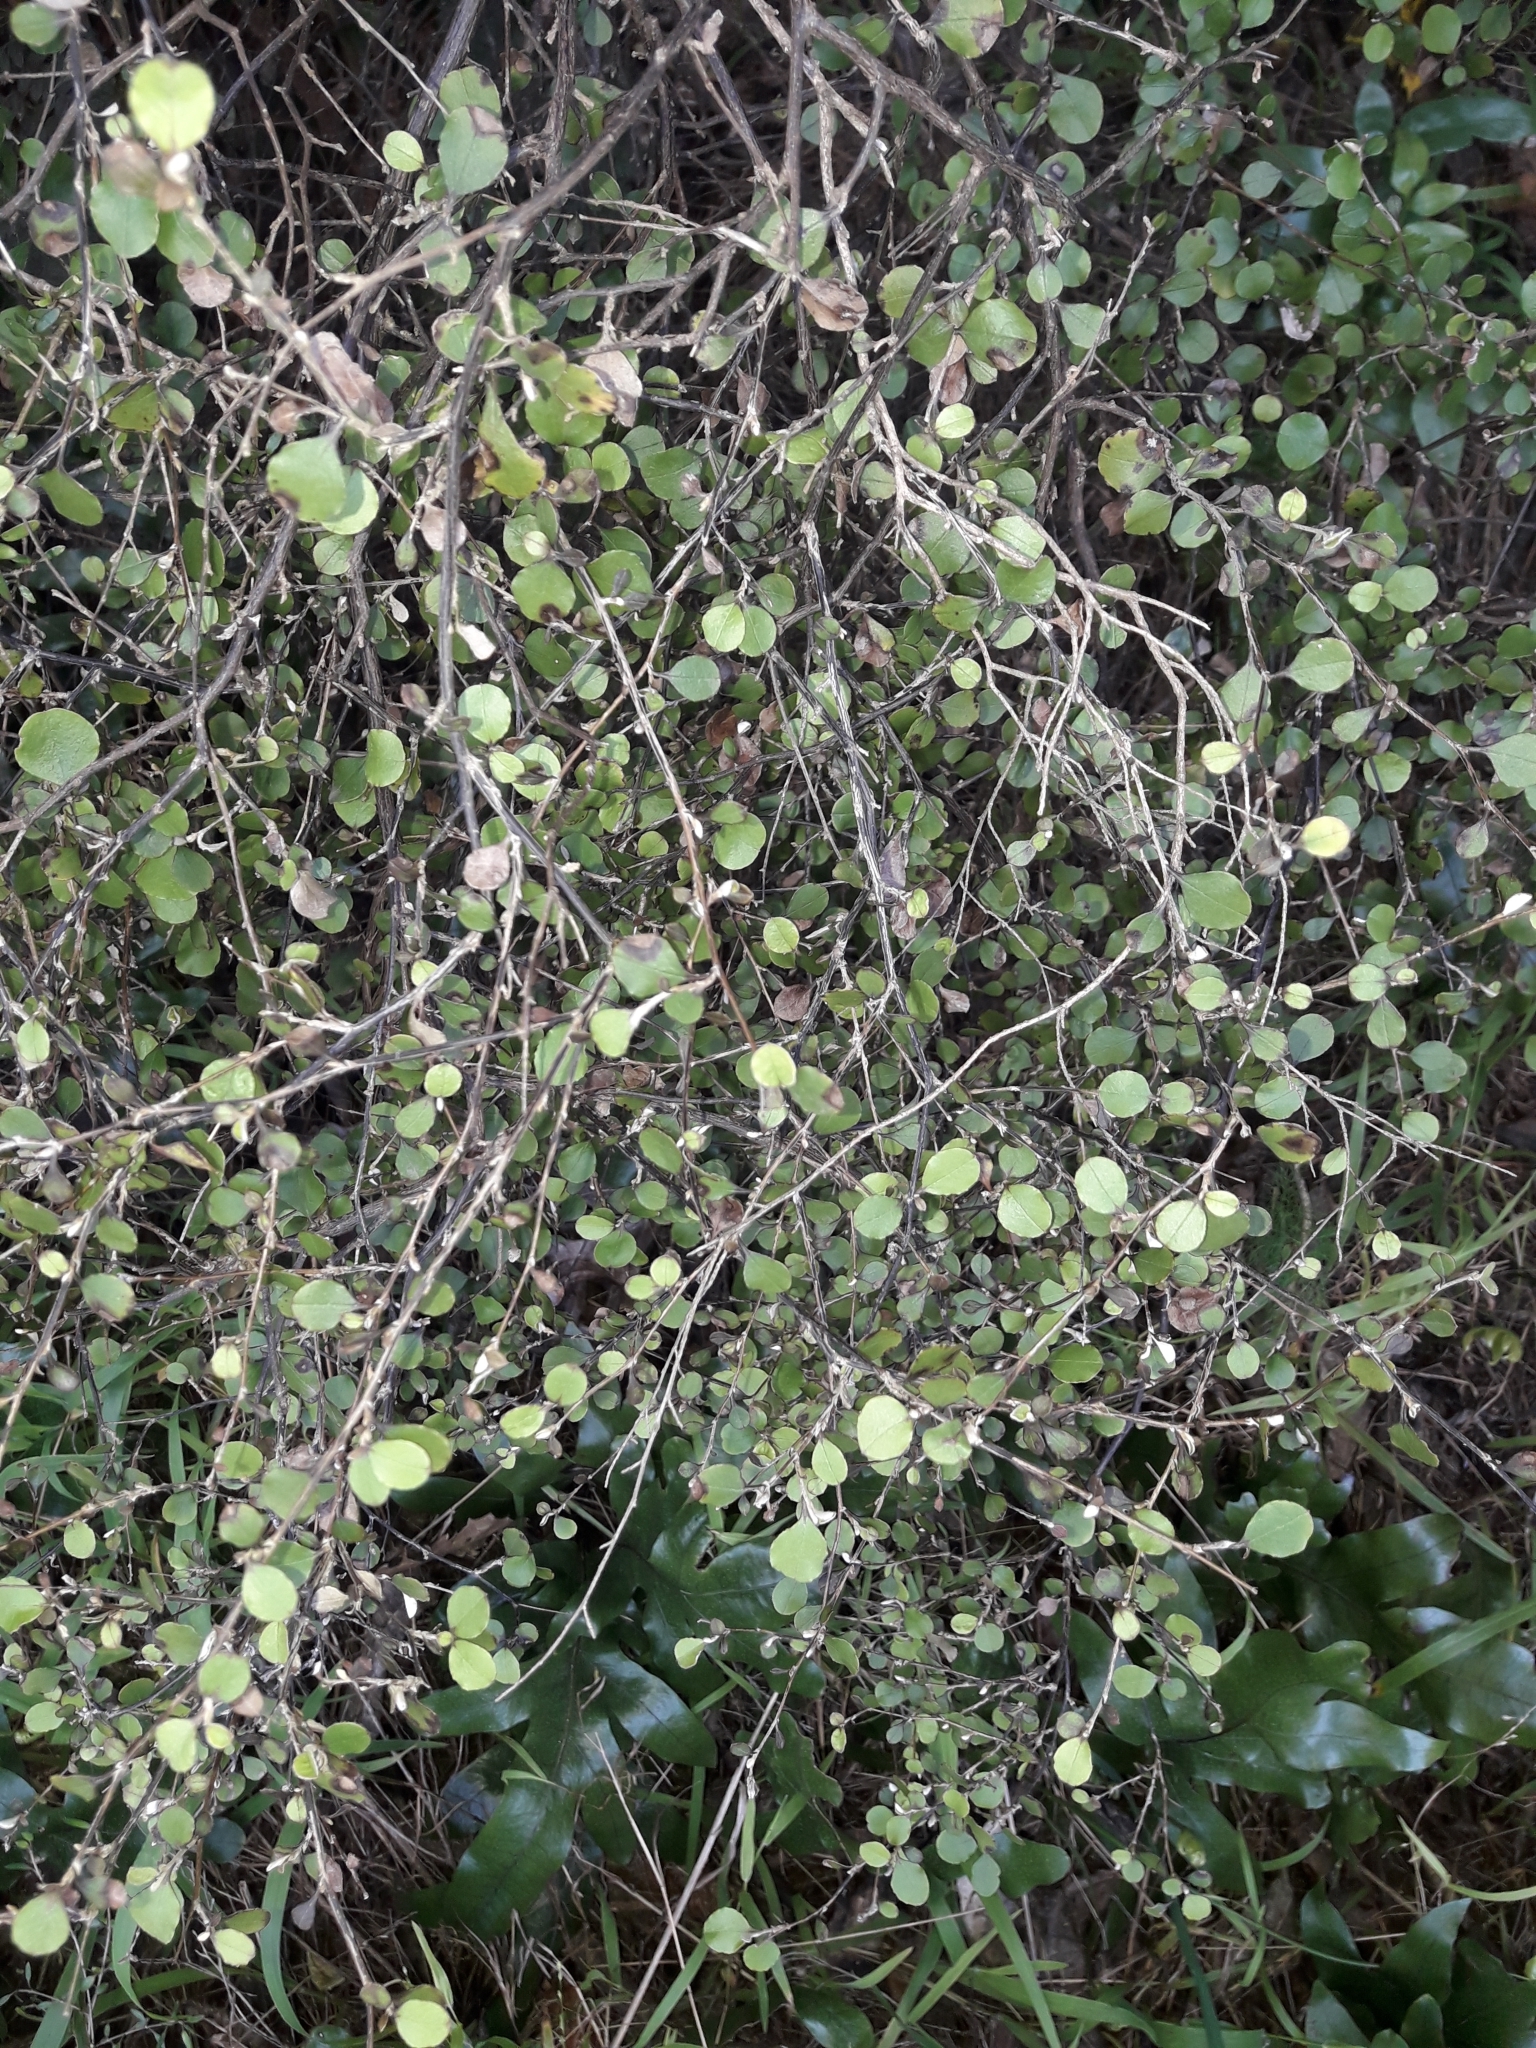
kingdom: Plantae
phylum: Tracheophyta
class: Magnoliopsida
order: Asterales
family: Asteraceae
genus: Ozothamnus
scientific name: Ozothamnus glomeratus
